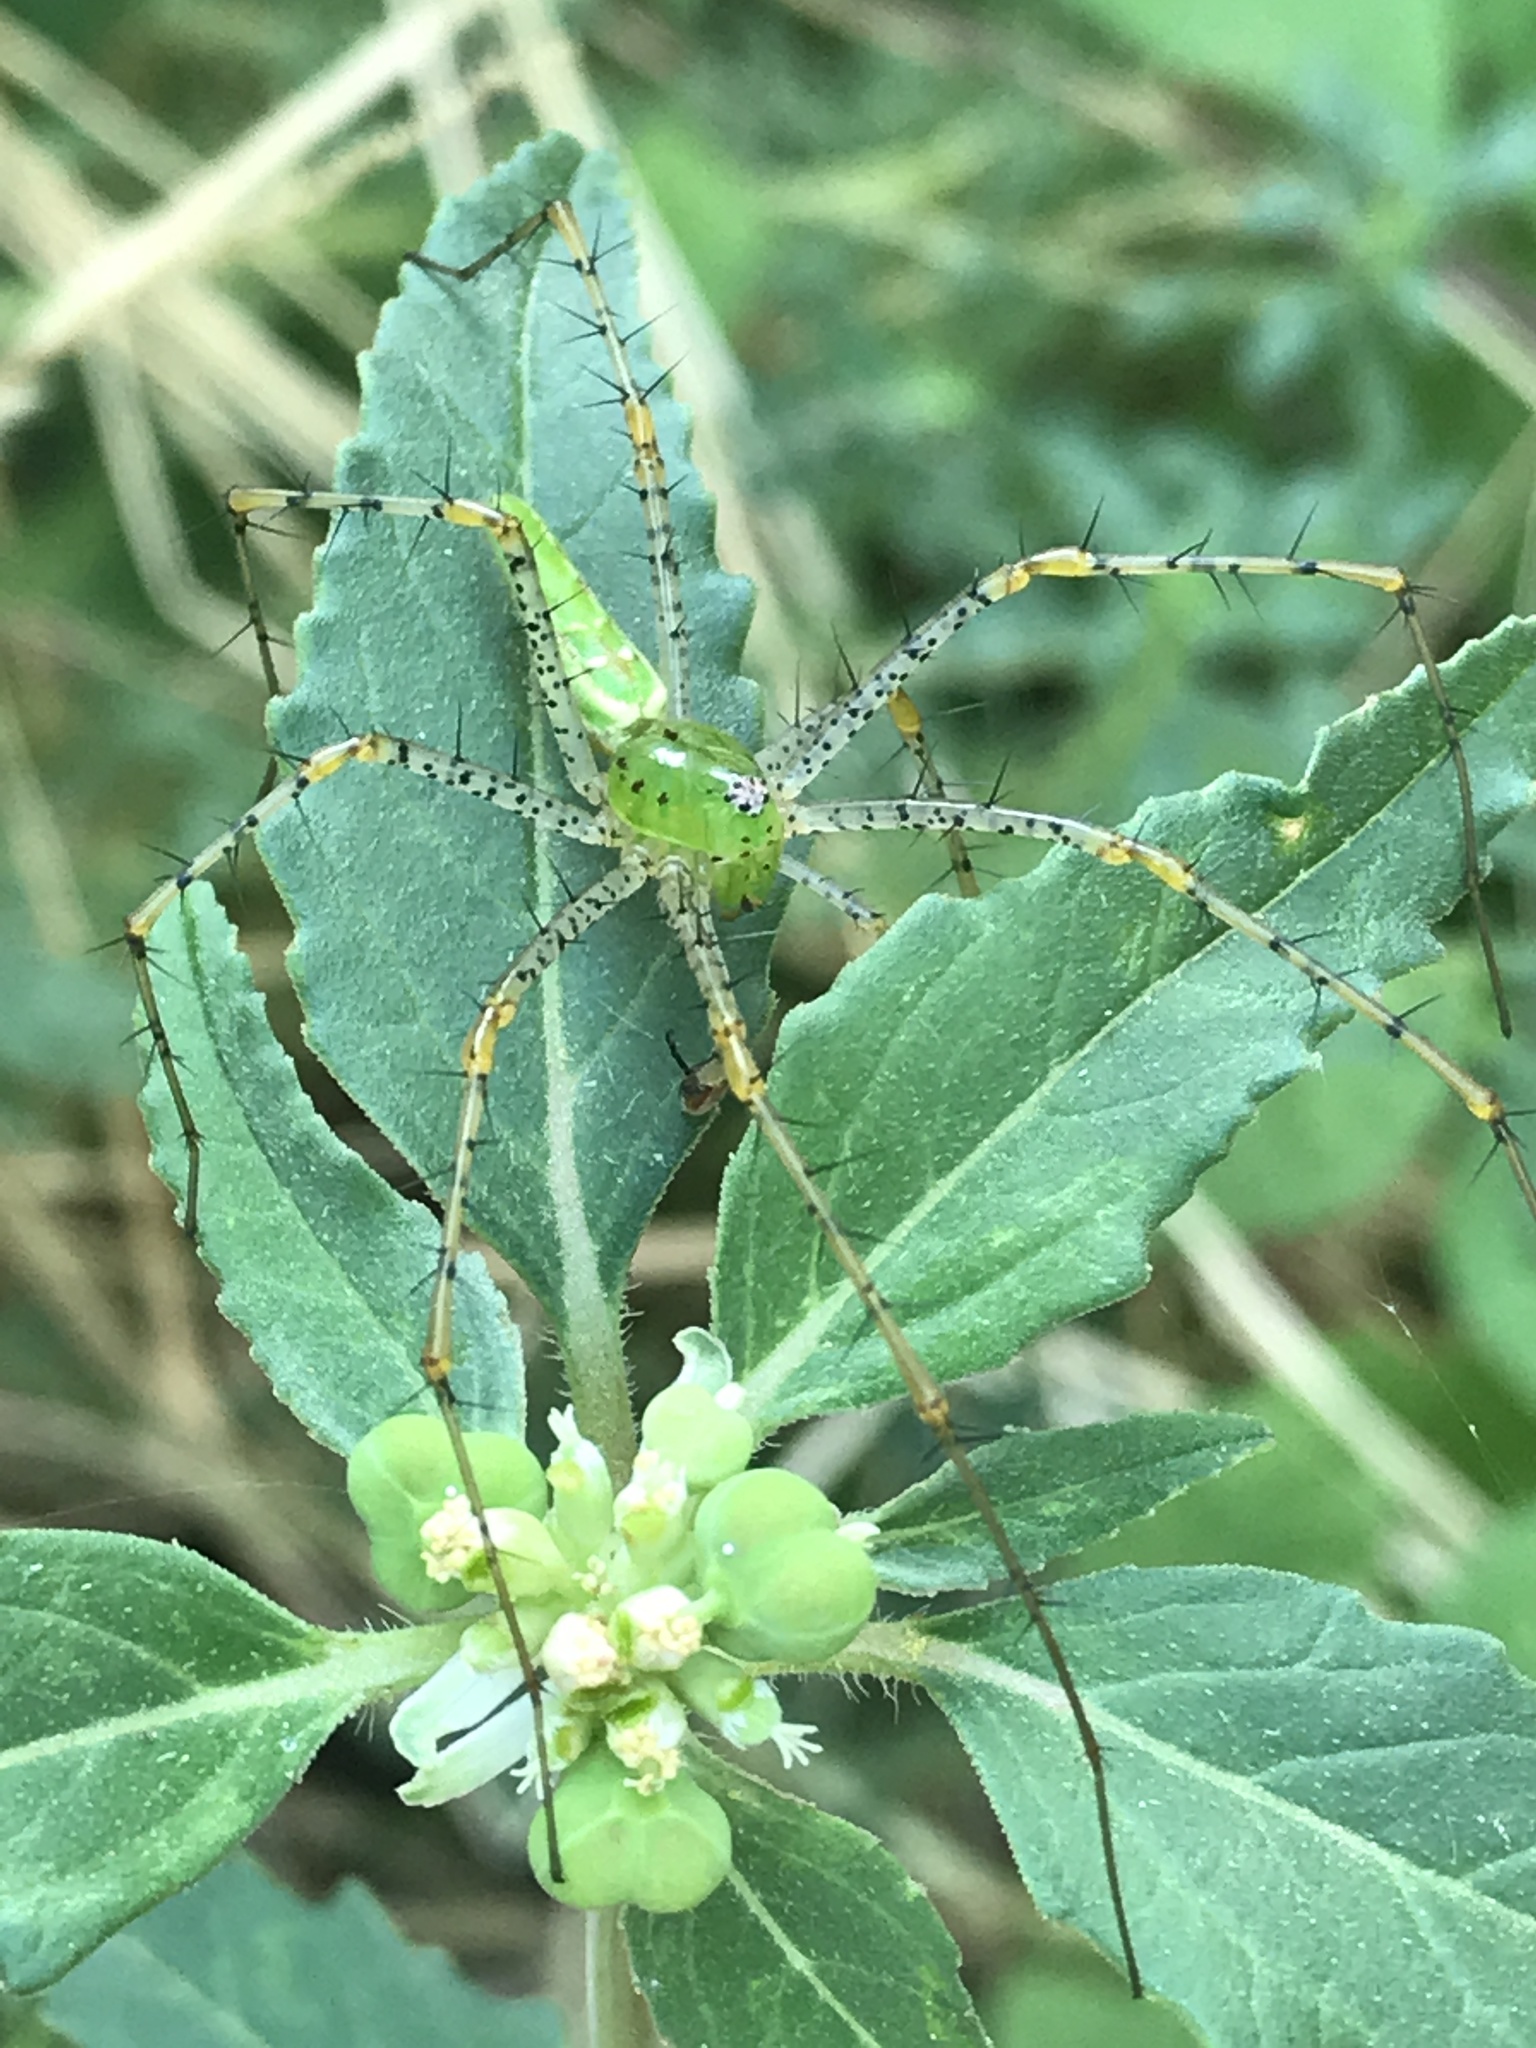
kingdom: Animalia
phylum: Arthropoda
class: Arachnida
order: Araneae
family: Oxyopidae
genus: Peucetia
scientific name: Peucetia viridans
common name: Lynx spiders
